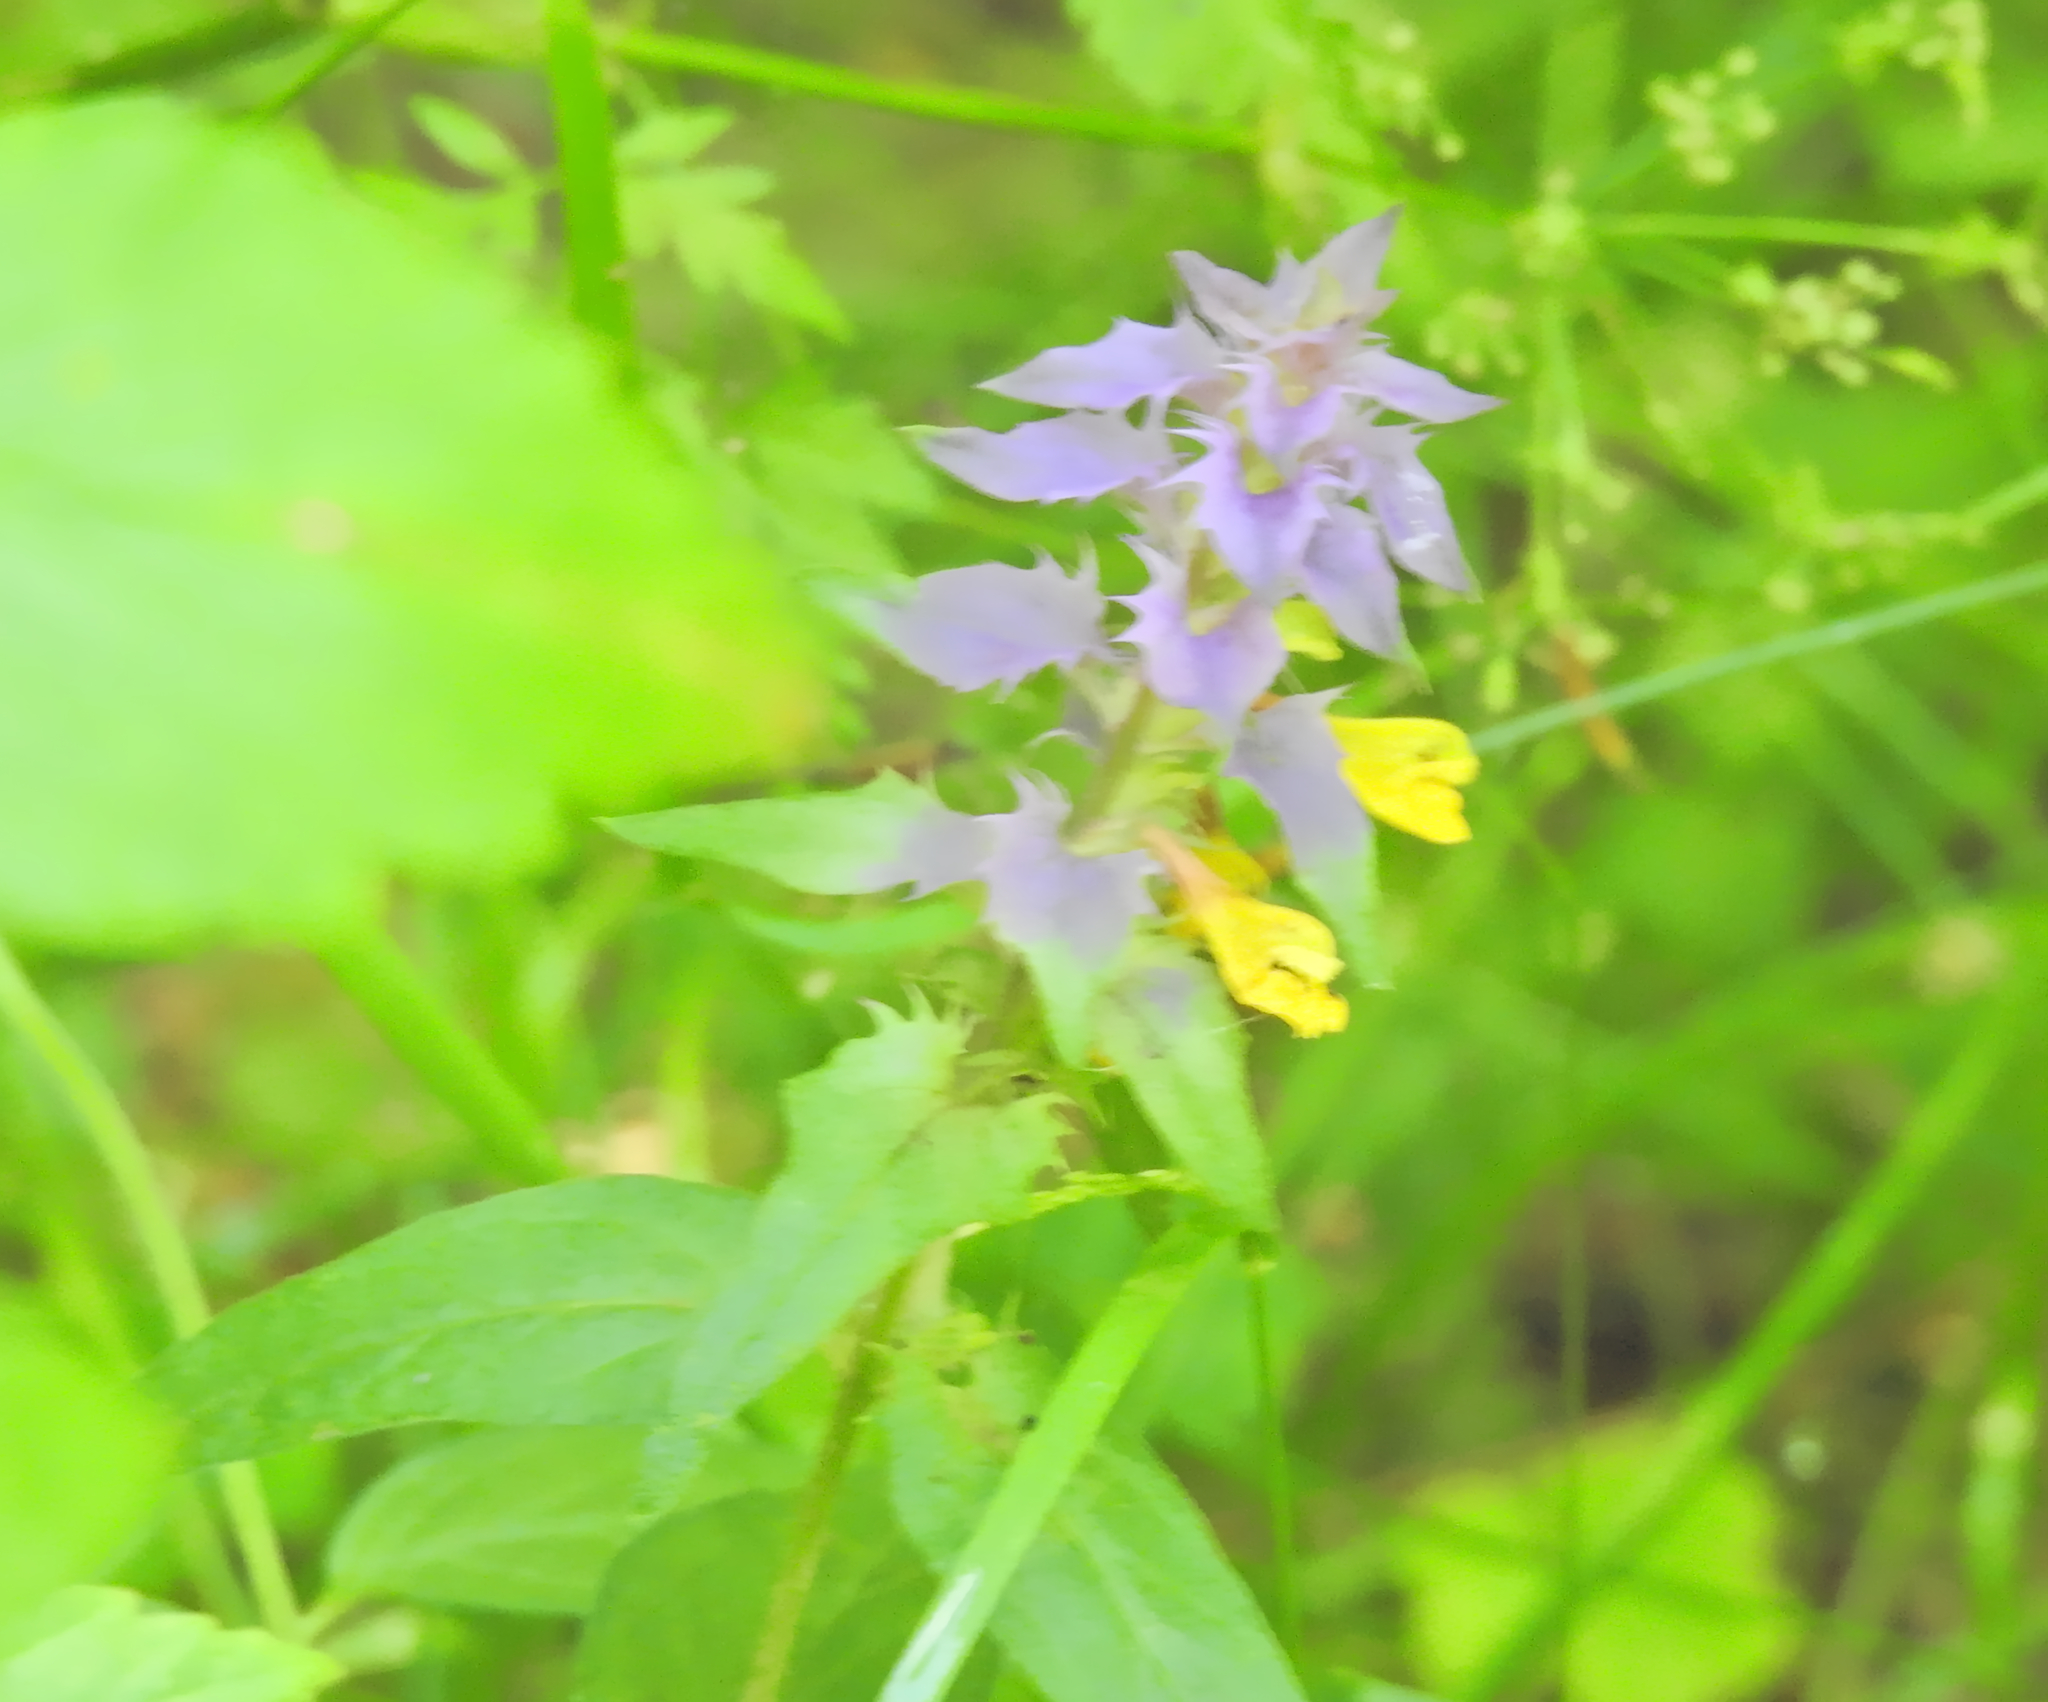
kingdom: Plantae
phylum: Tracheophyta
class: Magnoliopsida
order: Lamiales
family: Orobanchaceae
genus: Melampyrum
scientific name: Melampyrum nemorosum
